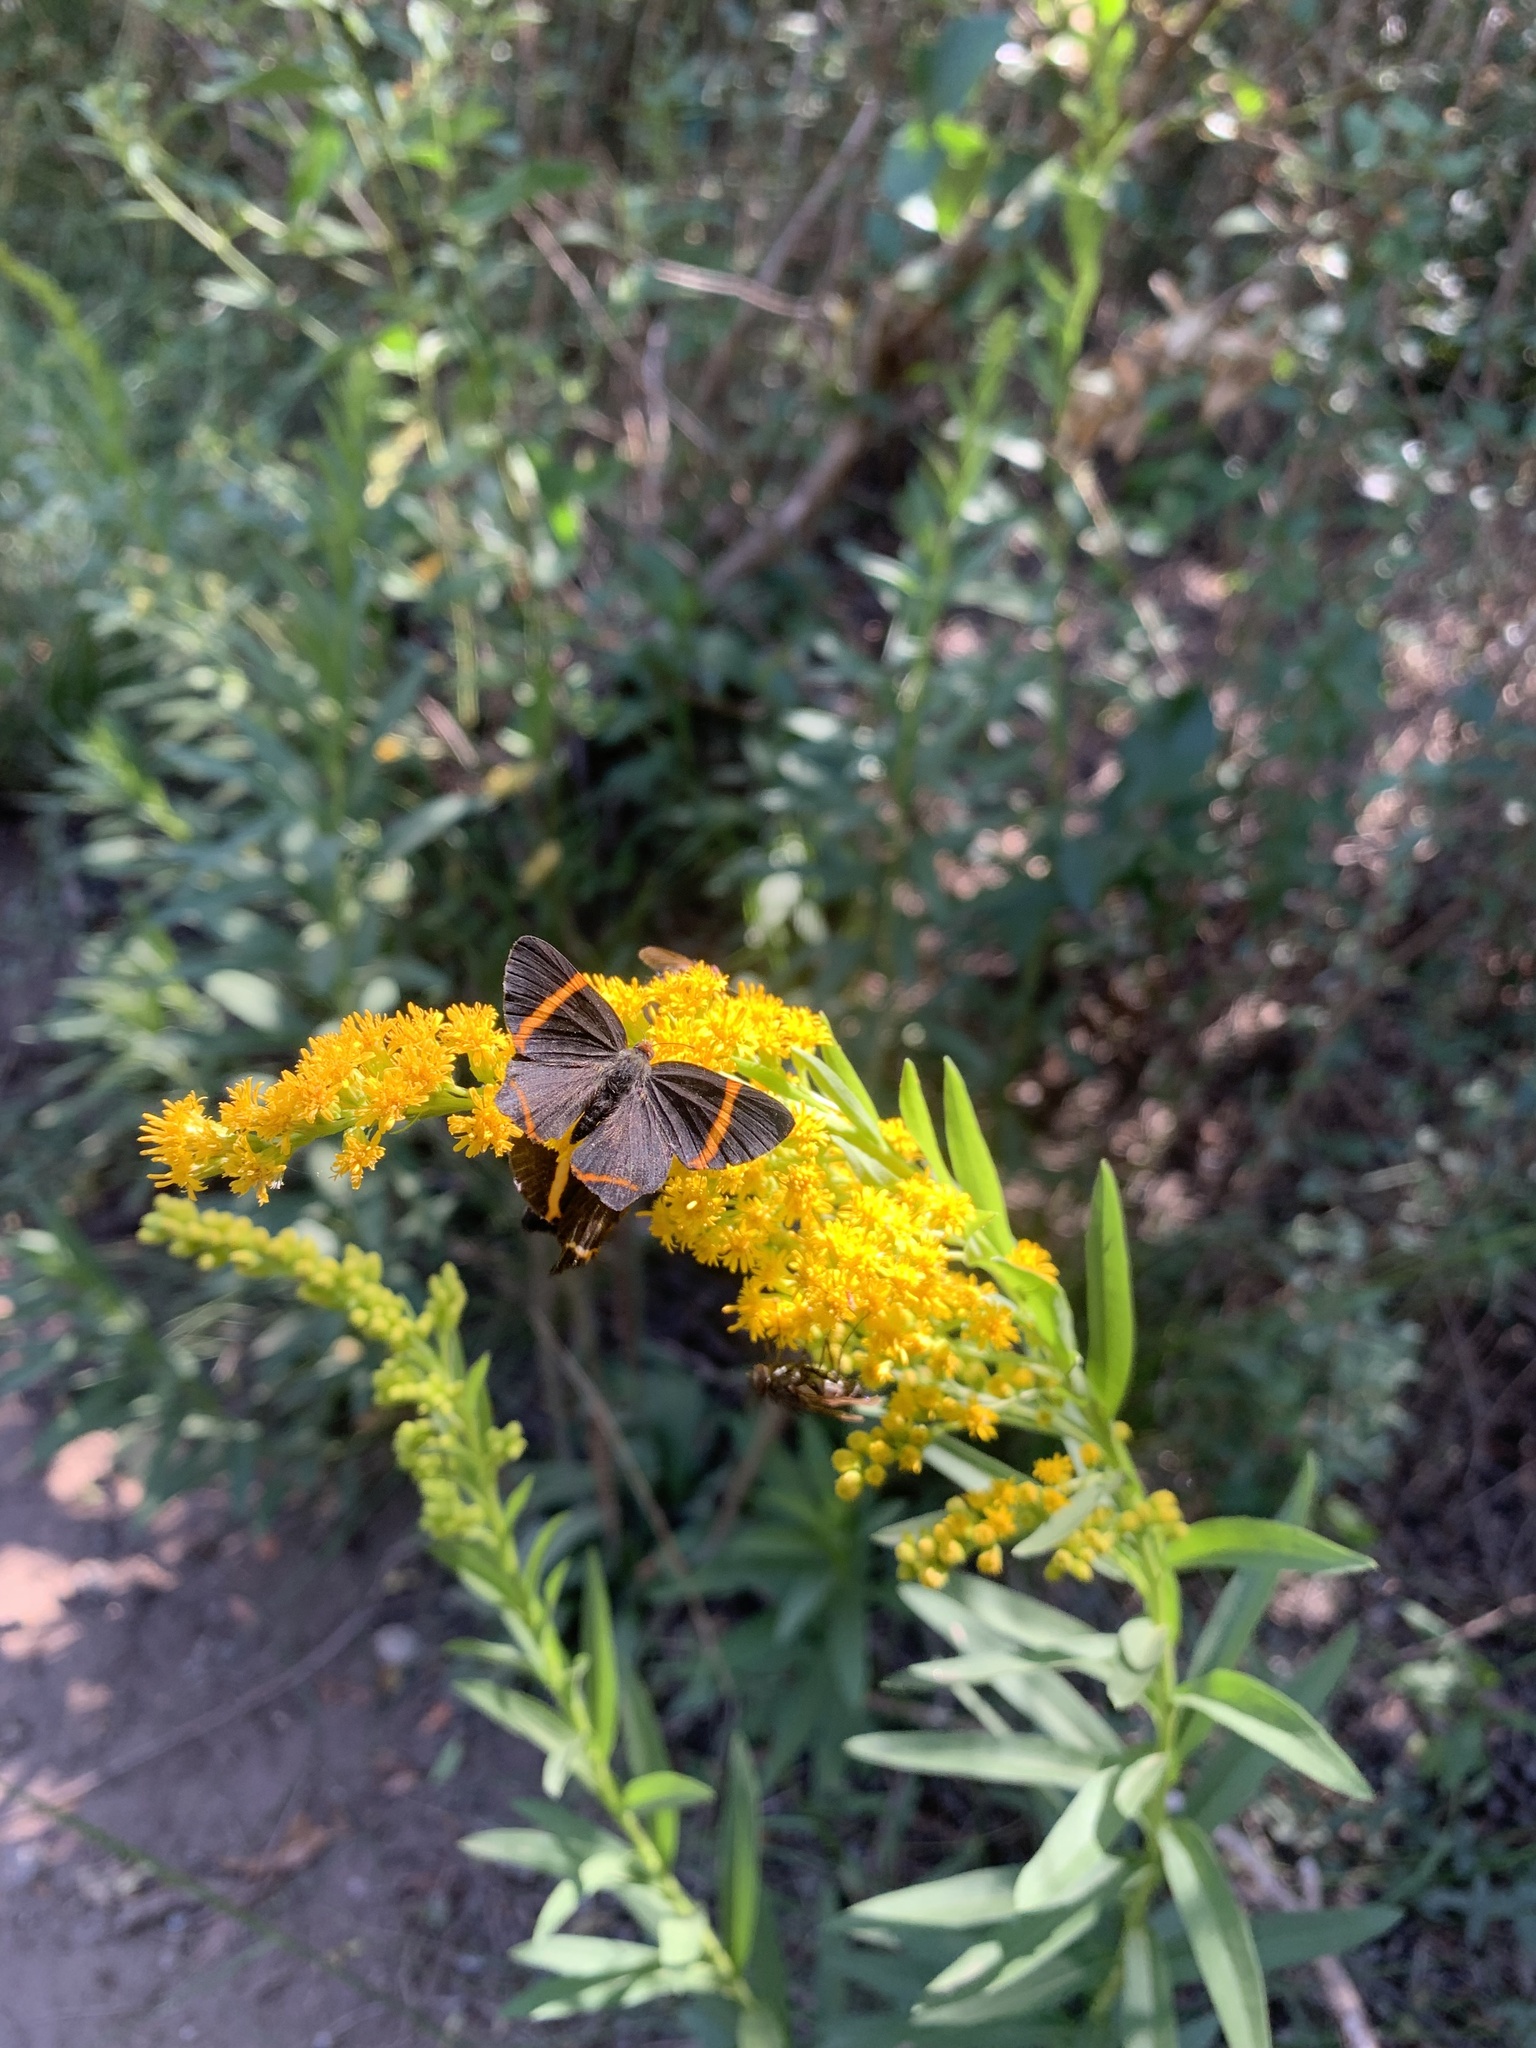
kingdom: Animalia
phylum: Arthropoda
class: Insecta
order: Lepidoptera
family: Riodinidae
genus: Riodina
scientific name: Riodina lysippoides
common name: Little dancer metalmark
